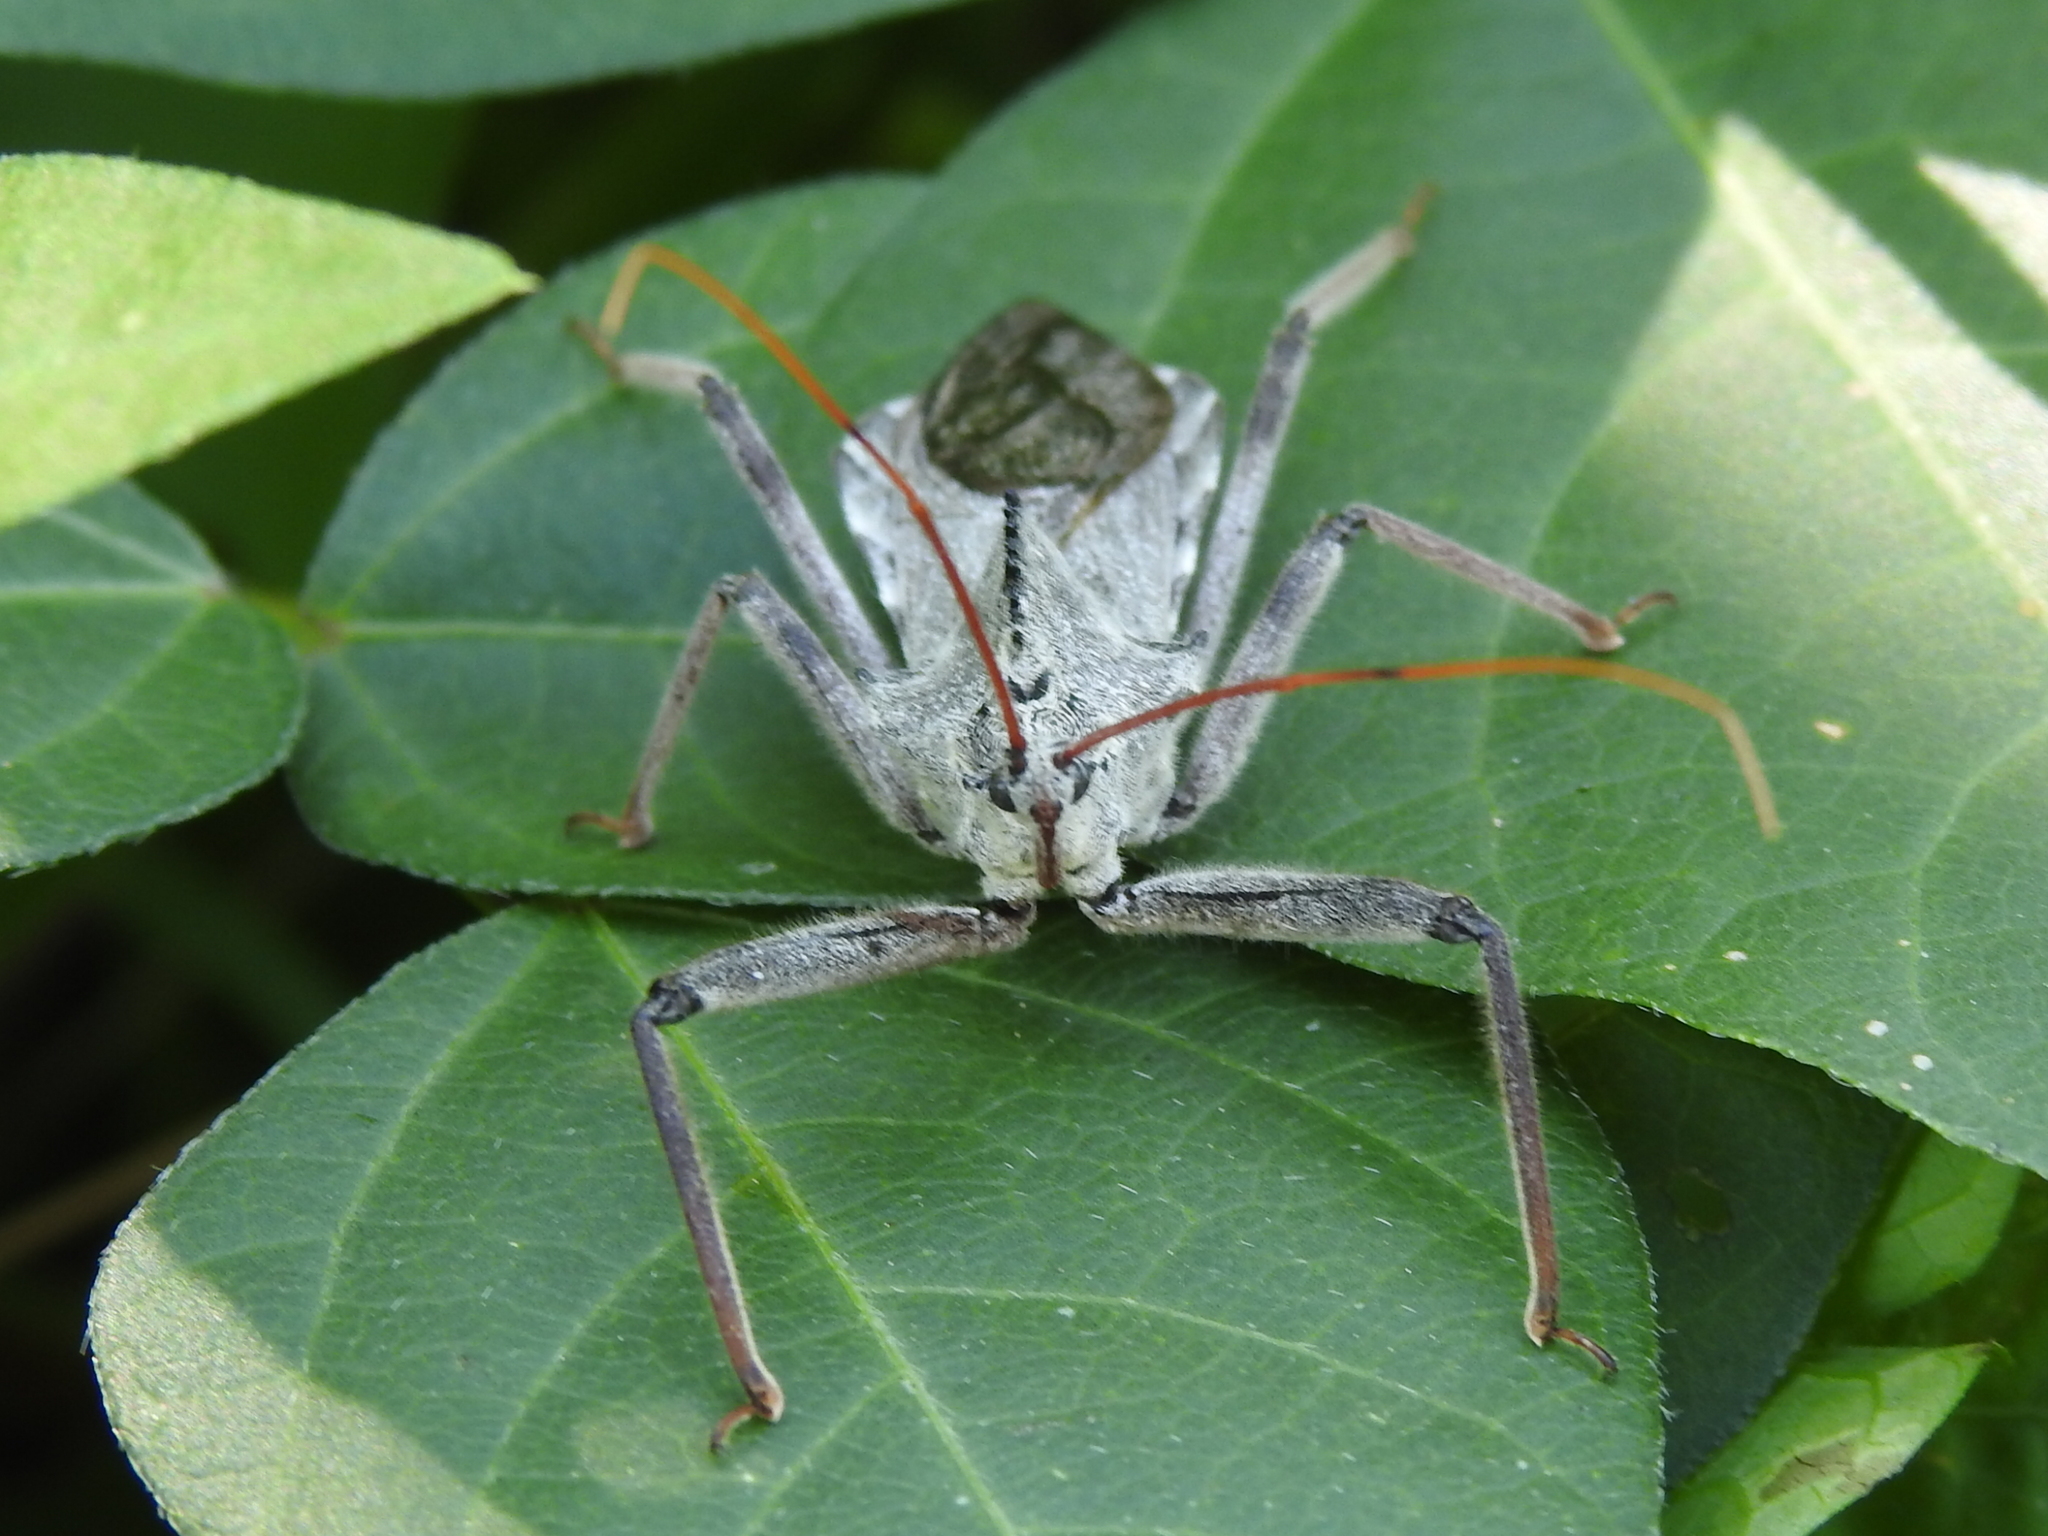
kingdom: Animalia
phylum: Arthropoda
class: Insecta
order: Hemiptera
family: Reduviidae
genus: Arilus
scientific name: Arilus cristatus
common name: North american wheel bug
